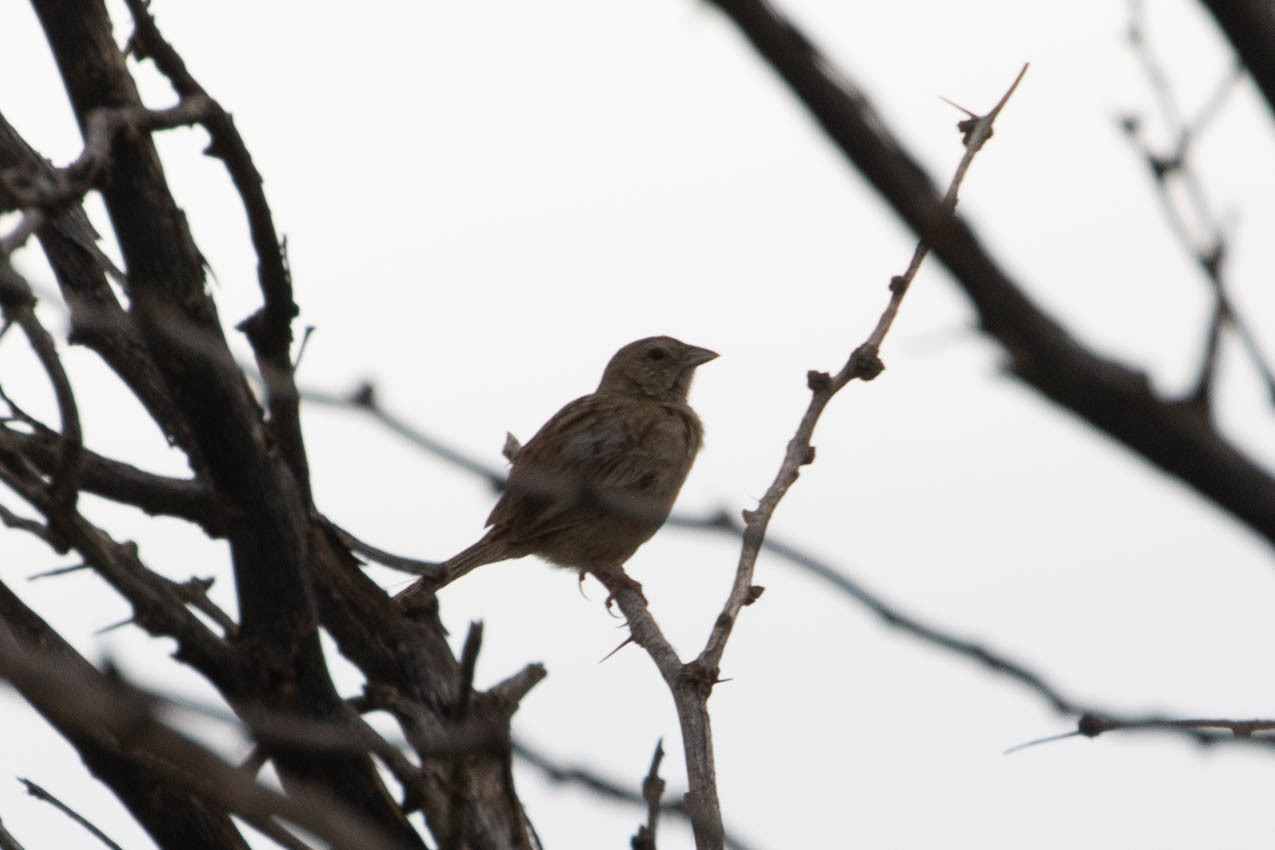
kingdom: Animalia
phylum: Chordata
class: Aves
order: Passeriformes
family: Passerellidae
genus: Peucaea
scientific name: Peucaea botterii
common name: Botteri's sparrow
